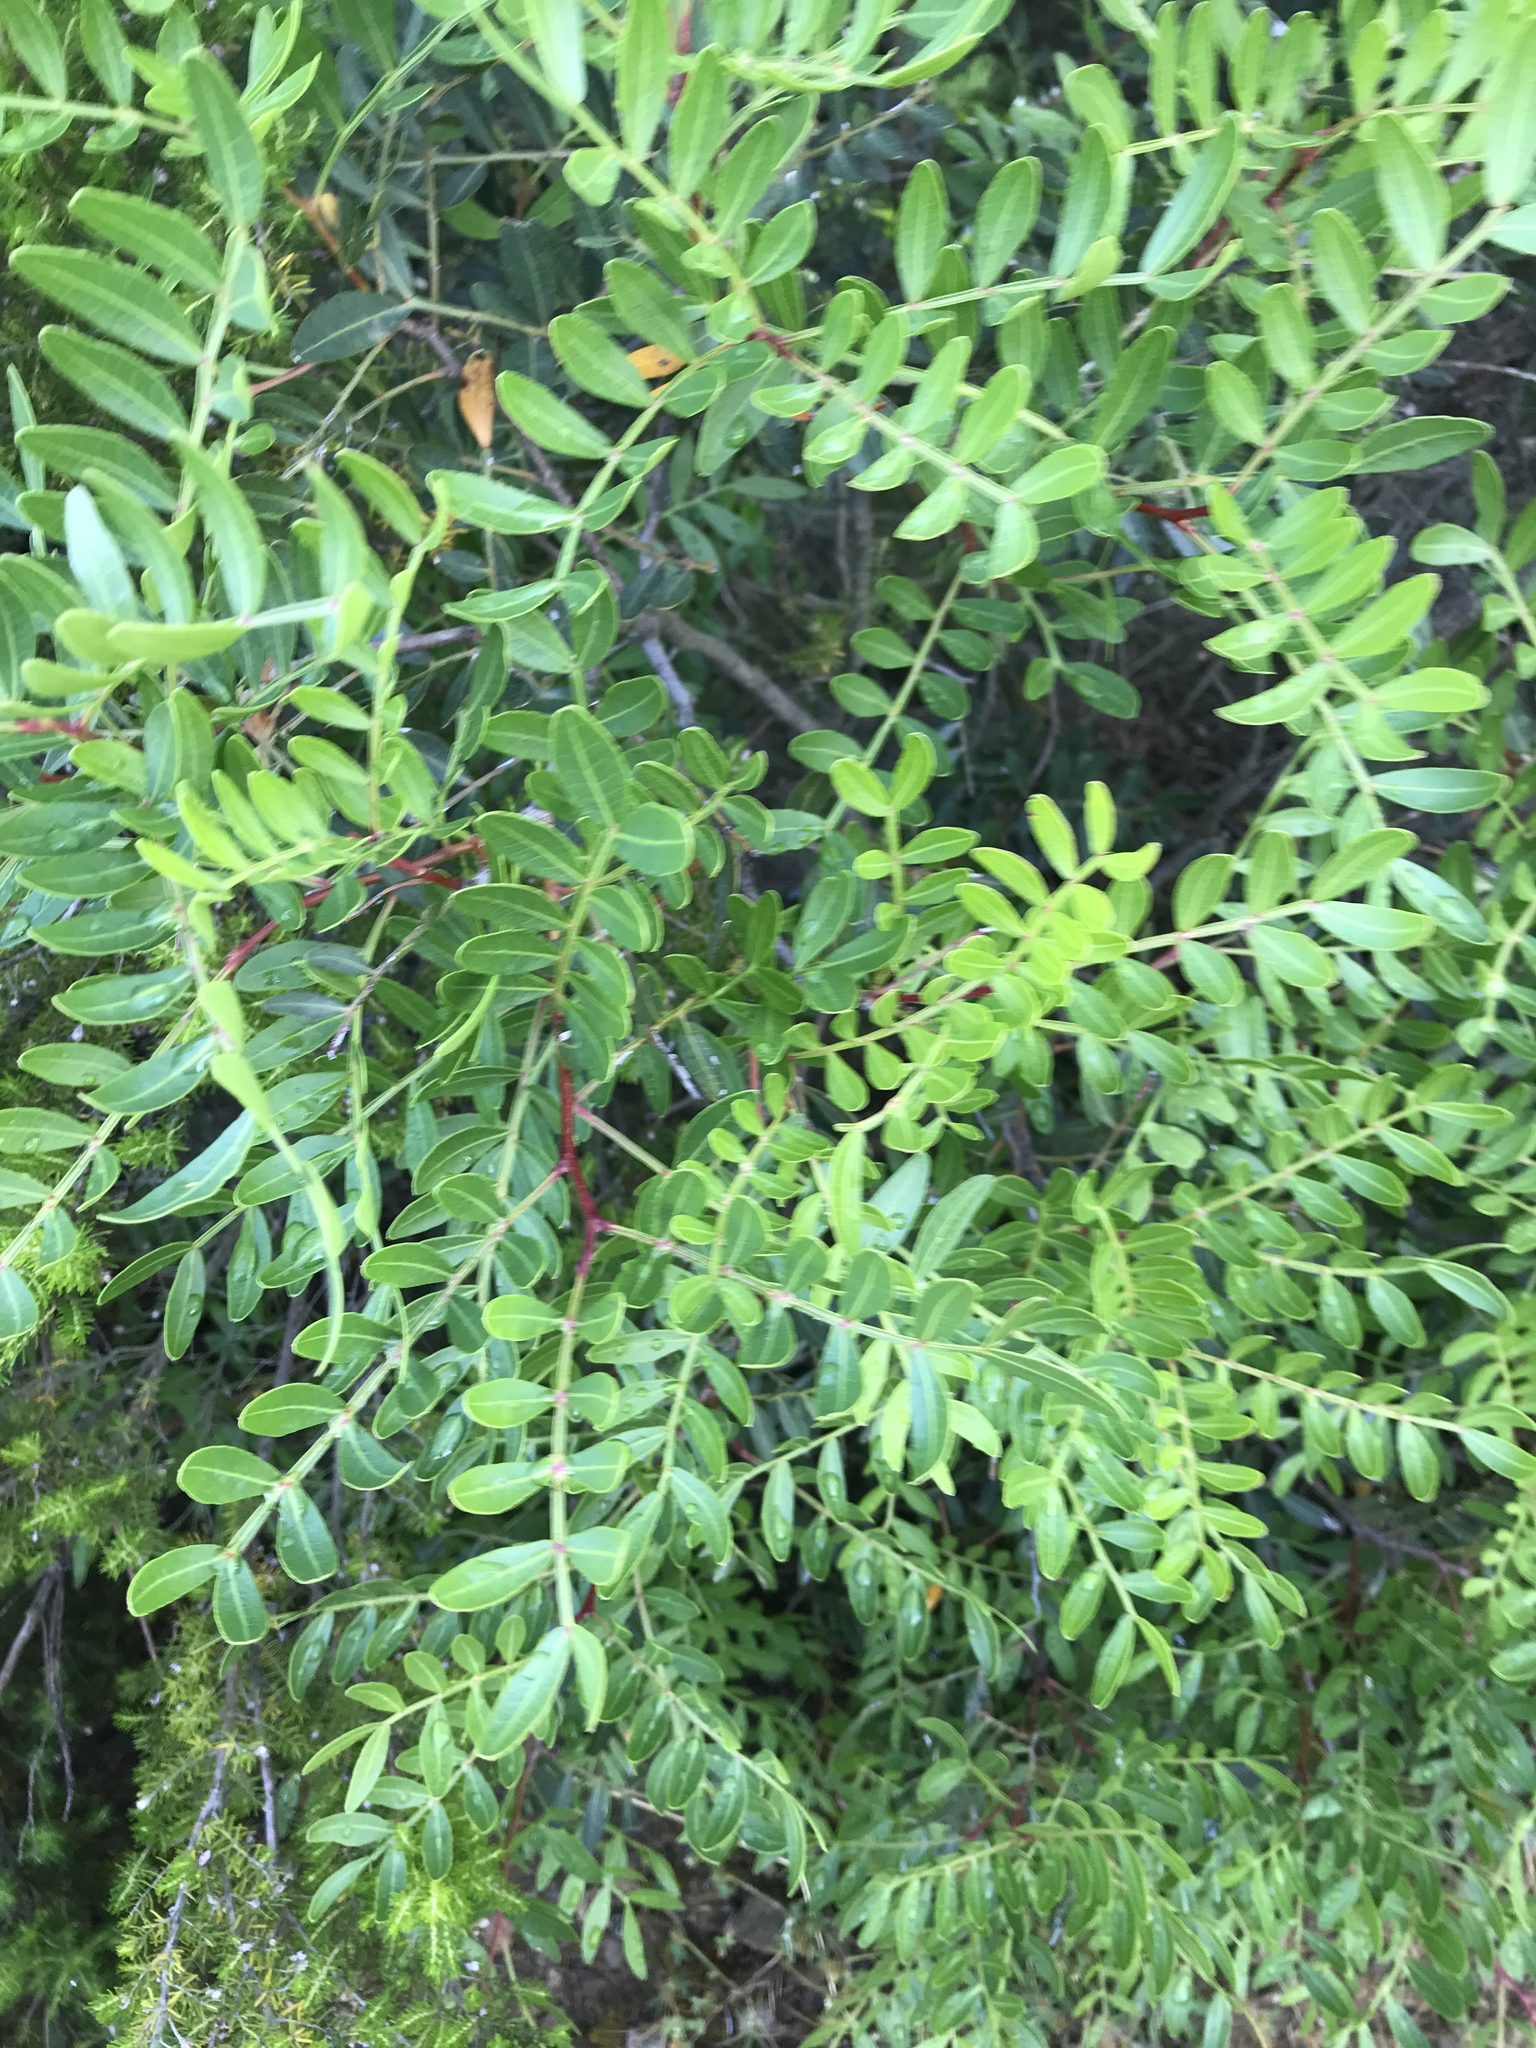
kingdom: Plantae
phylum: Tracheophyta
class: Magnoliopsida
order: Sapindales
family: Anacardiaceae
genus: Pistacia
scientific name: Pistacia lentiscus
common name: Lentisk
